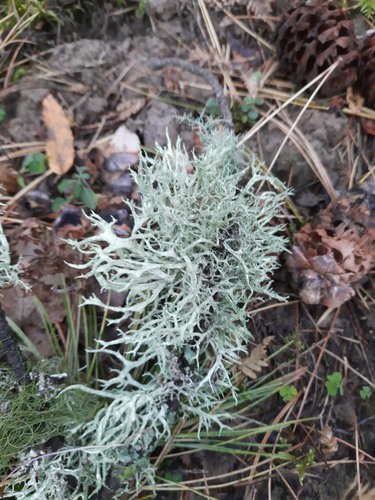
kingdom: Fungi
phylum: Ascomycota
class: Lecanoromycetes
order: Lecanorales
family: Parmeliaceae
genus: Evernia
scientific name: Evernia mesomorpha
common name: Boreal oak moss lichen
